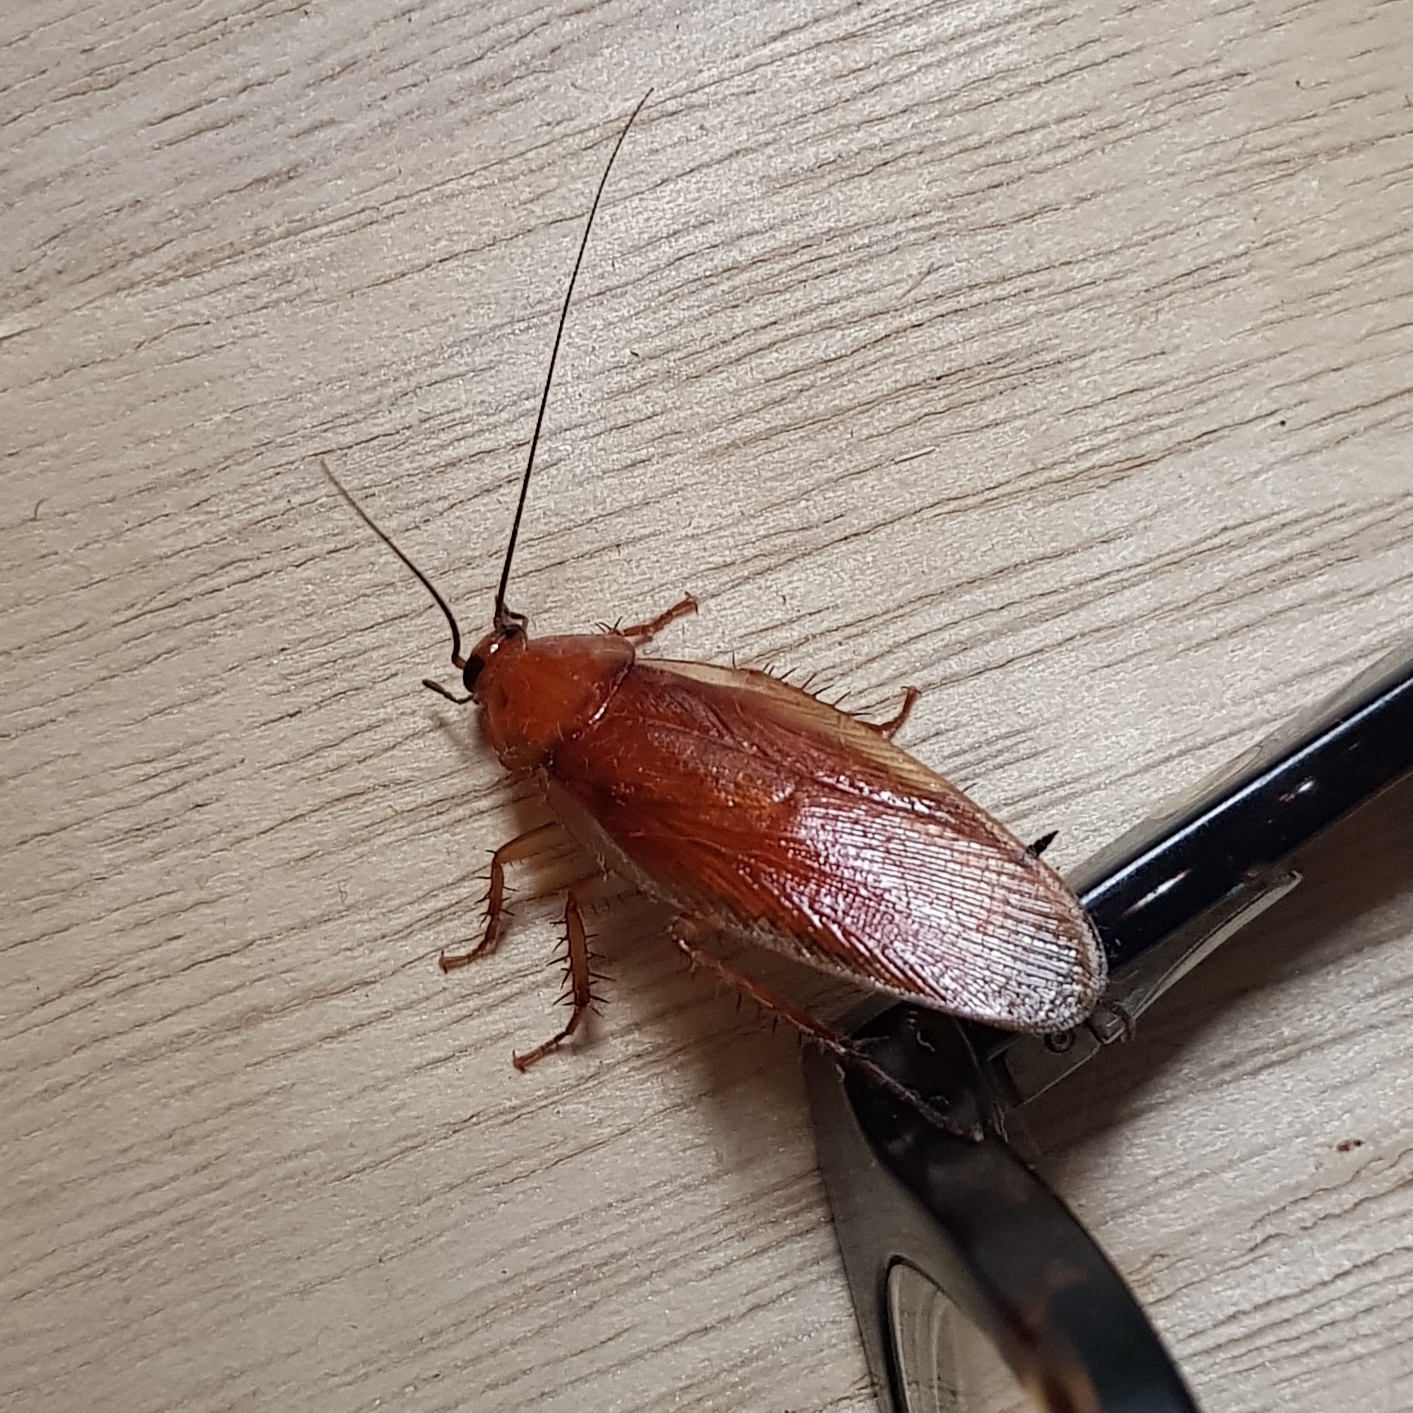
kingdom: Animalia
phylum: Arthropoda
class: Insecta
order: Blattodea
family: Ectobiidae
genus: Neotemnopteryx
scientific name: Neotemnopteryx fulva
